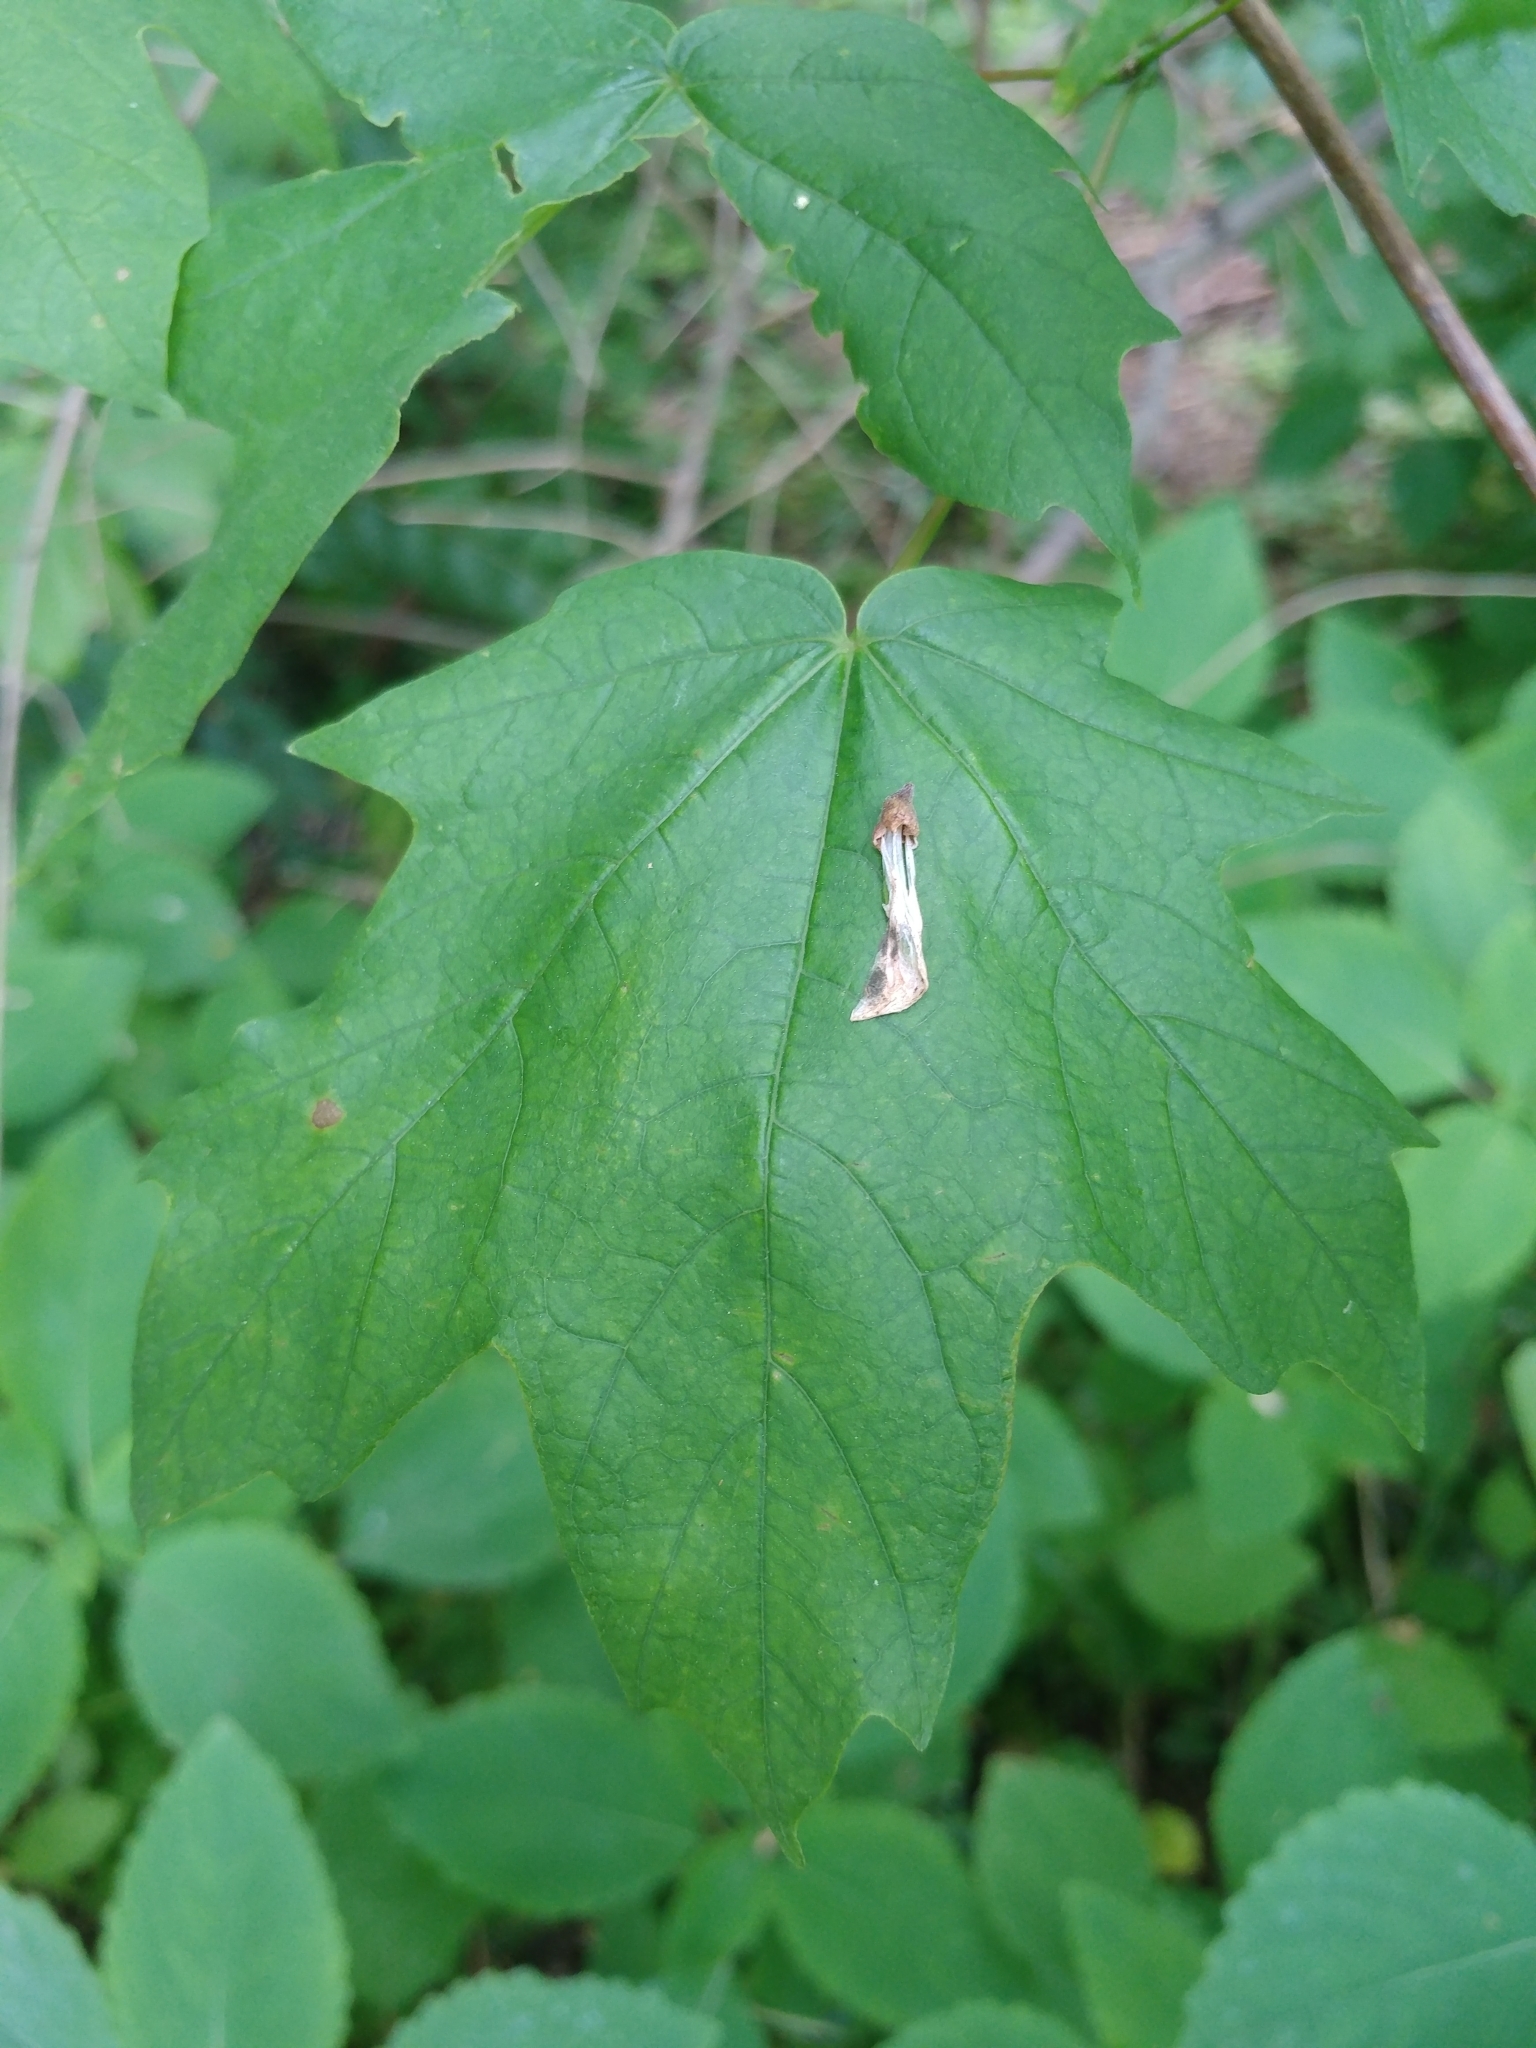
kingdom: Plantae
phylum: Tracheophyta
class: Magnoliopsida
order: Sapindales
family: Sapindaceae
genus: Acer
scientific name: Acer nigrum
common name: Black maple
